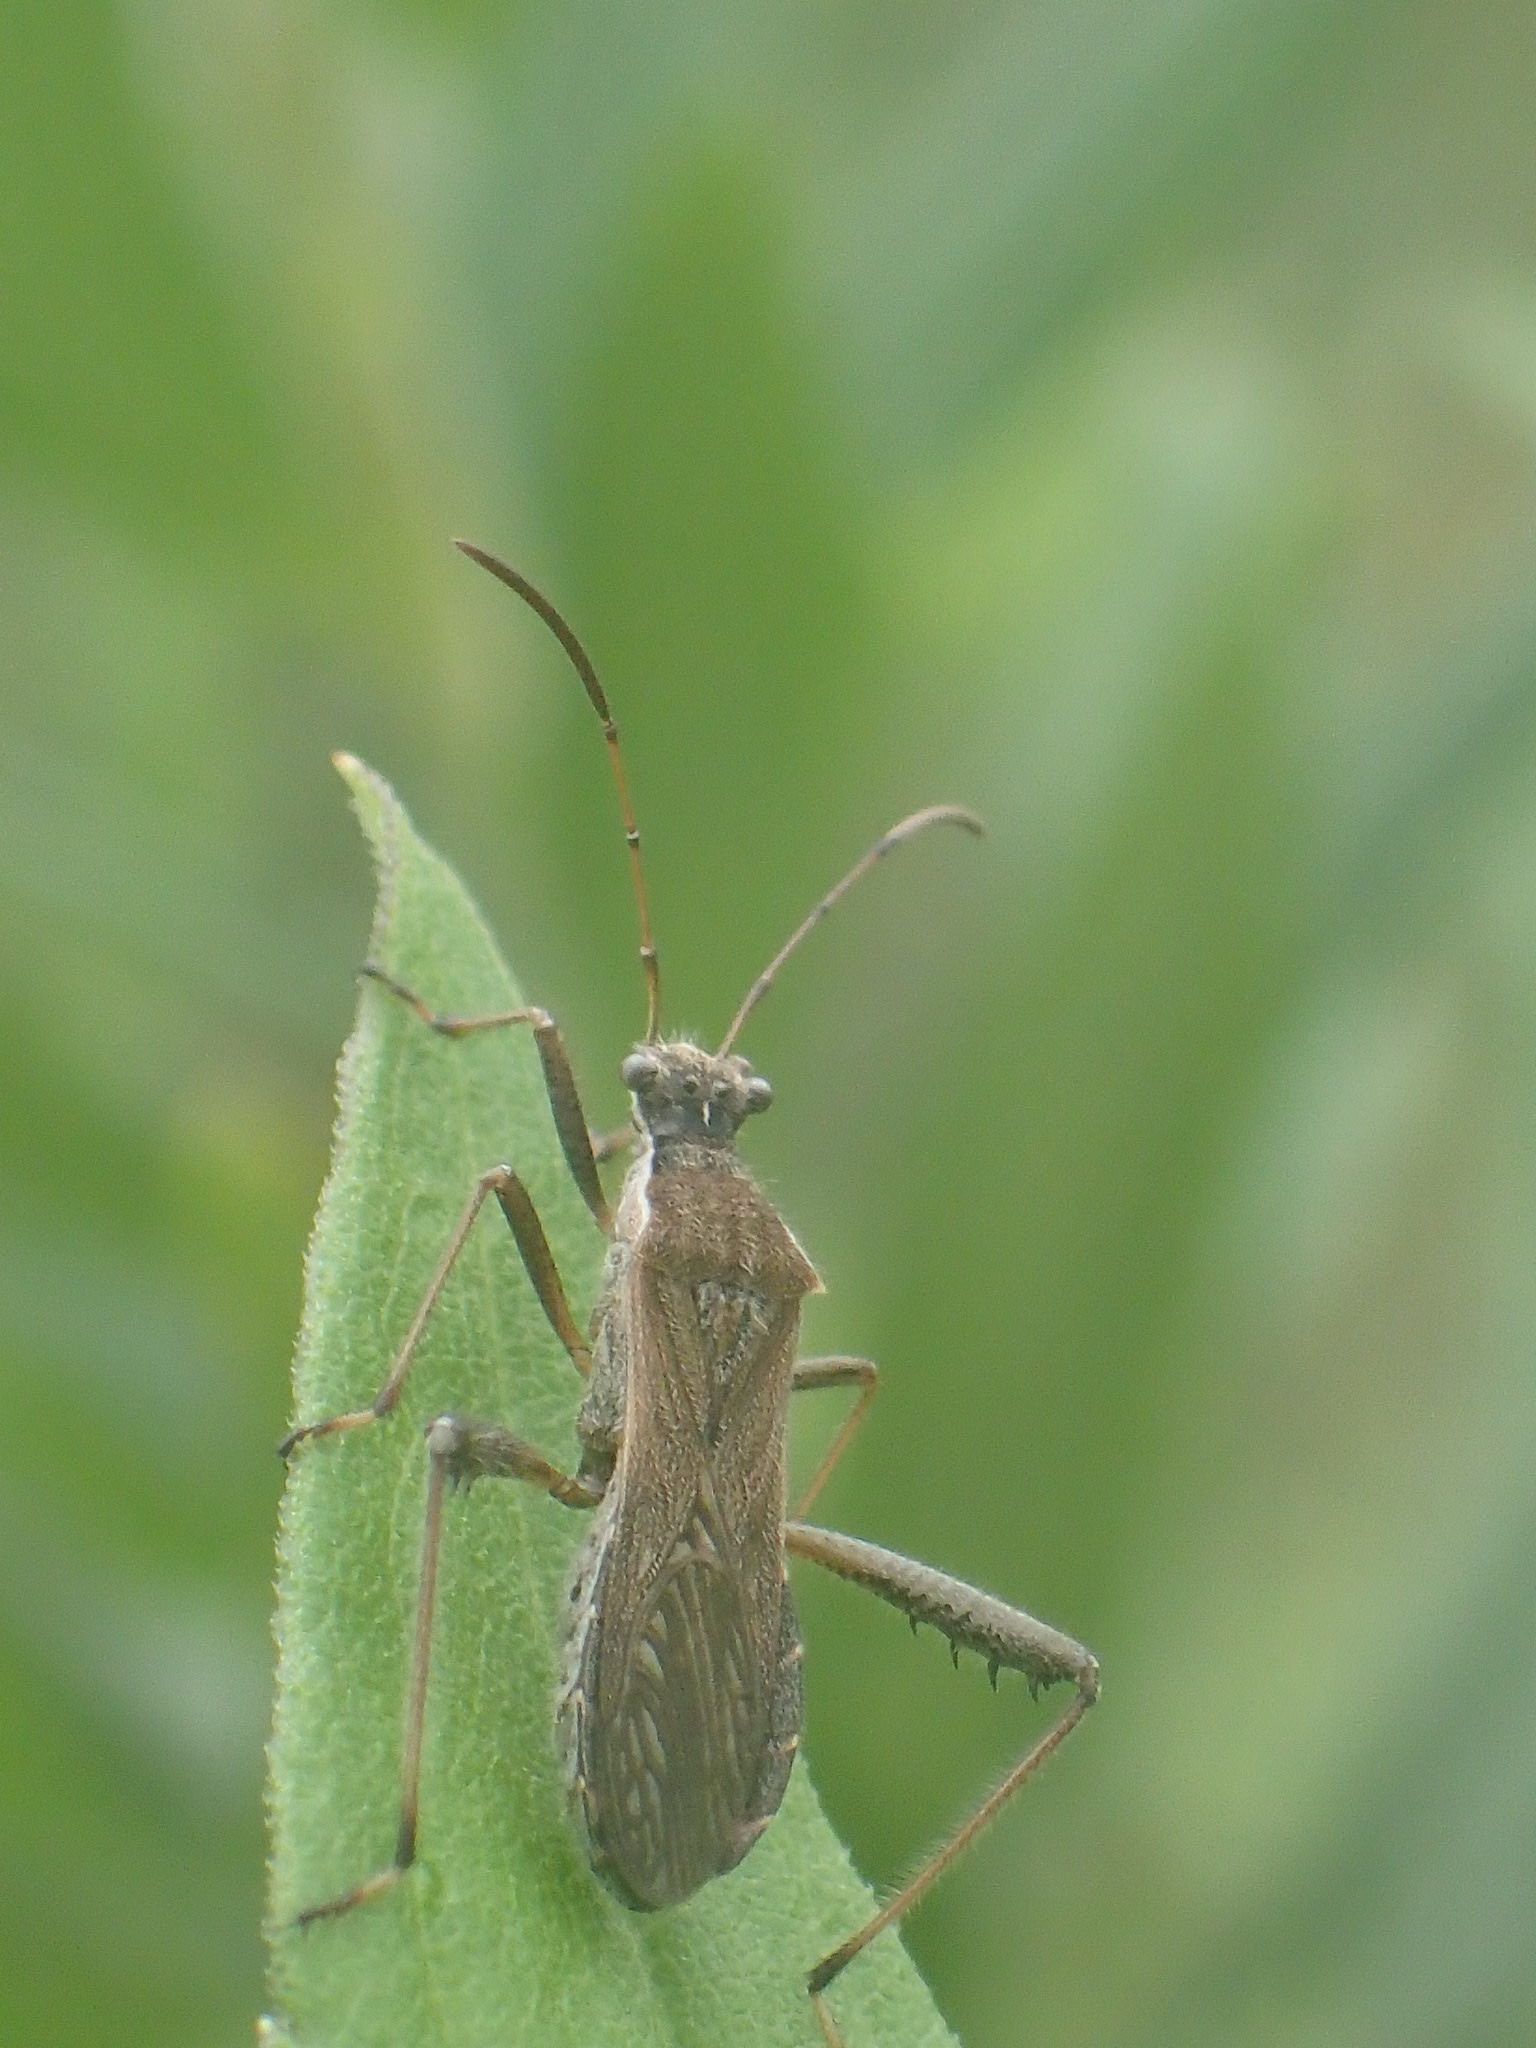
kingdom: Animalia
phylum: Arthropoda
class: Insecta
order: Hemiptera
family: Alydidae
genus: Alydus
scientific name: Alydus pilosulus
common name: Broad-headed bug
